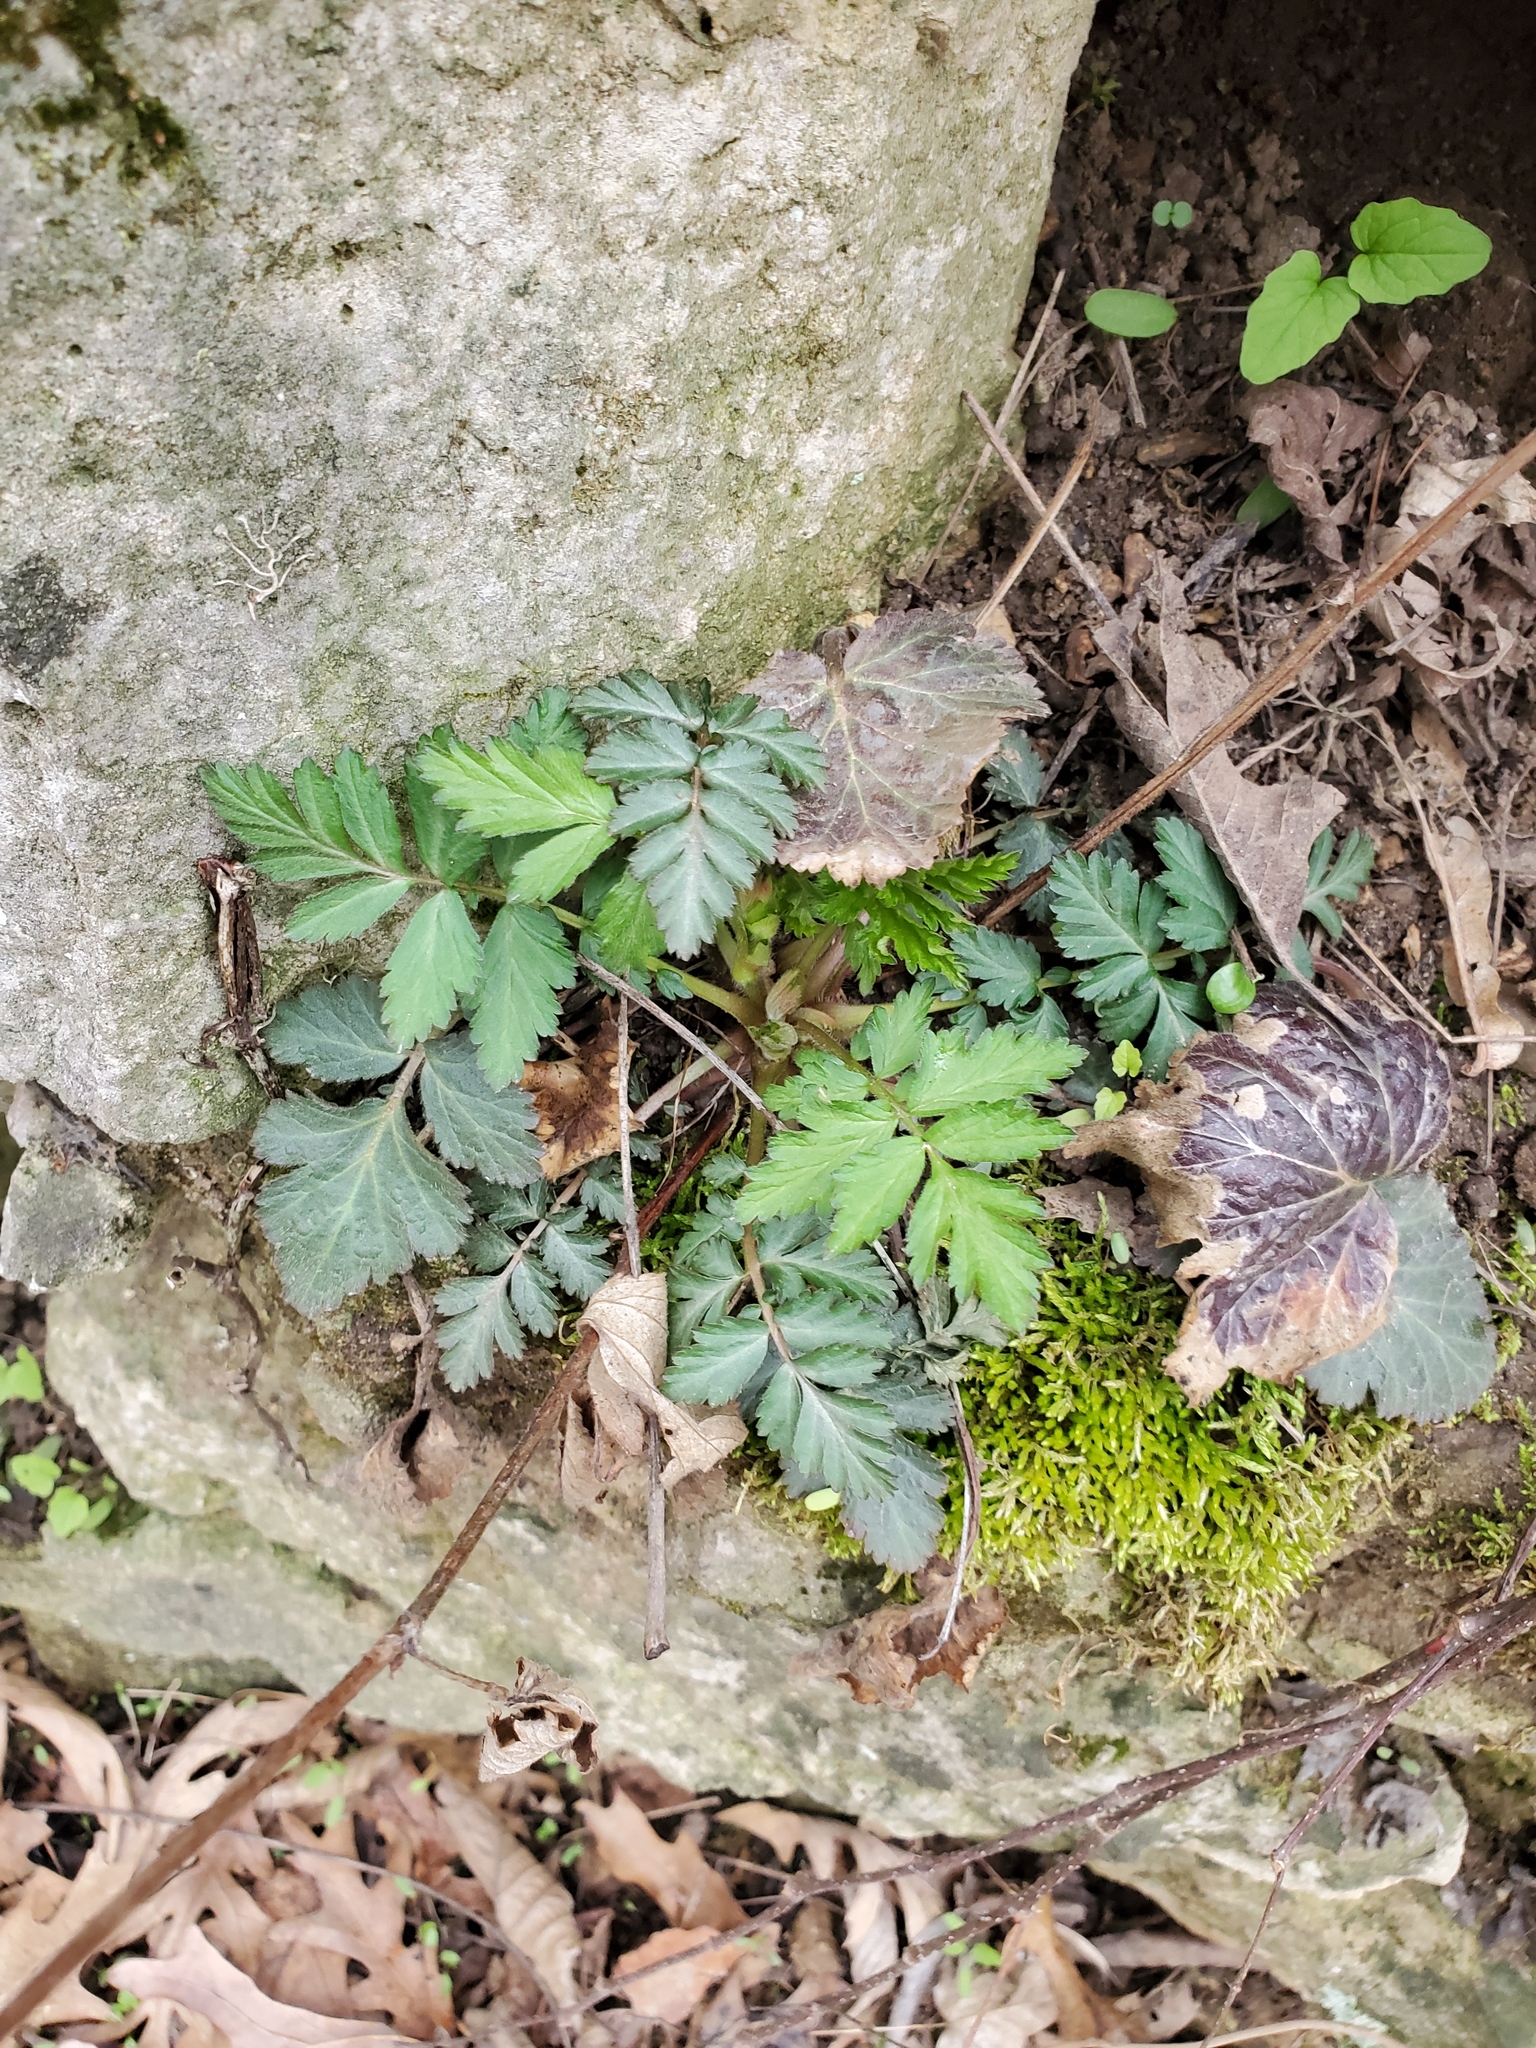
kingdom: Plantae
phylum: Tracheophyta
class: Magnoliopsida
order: Rosales
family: Rosaceae
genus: Geum
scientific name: Geum canadense
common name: White avens
